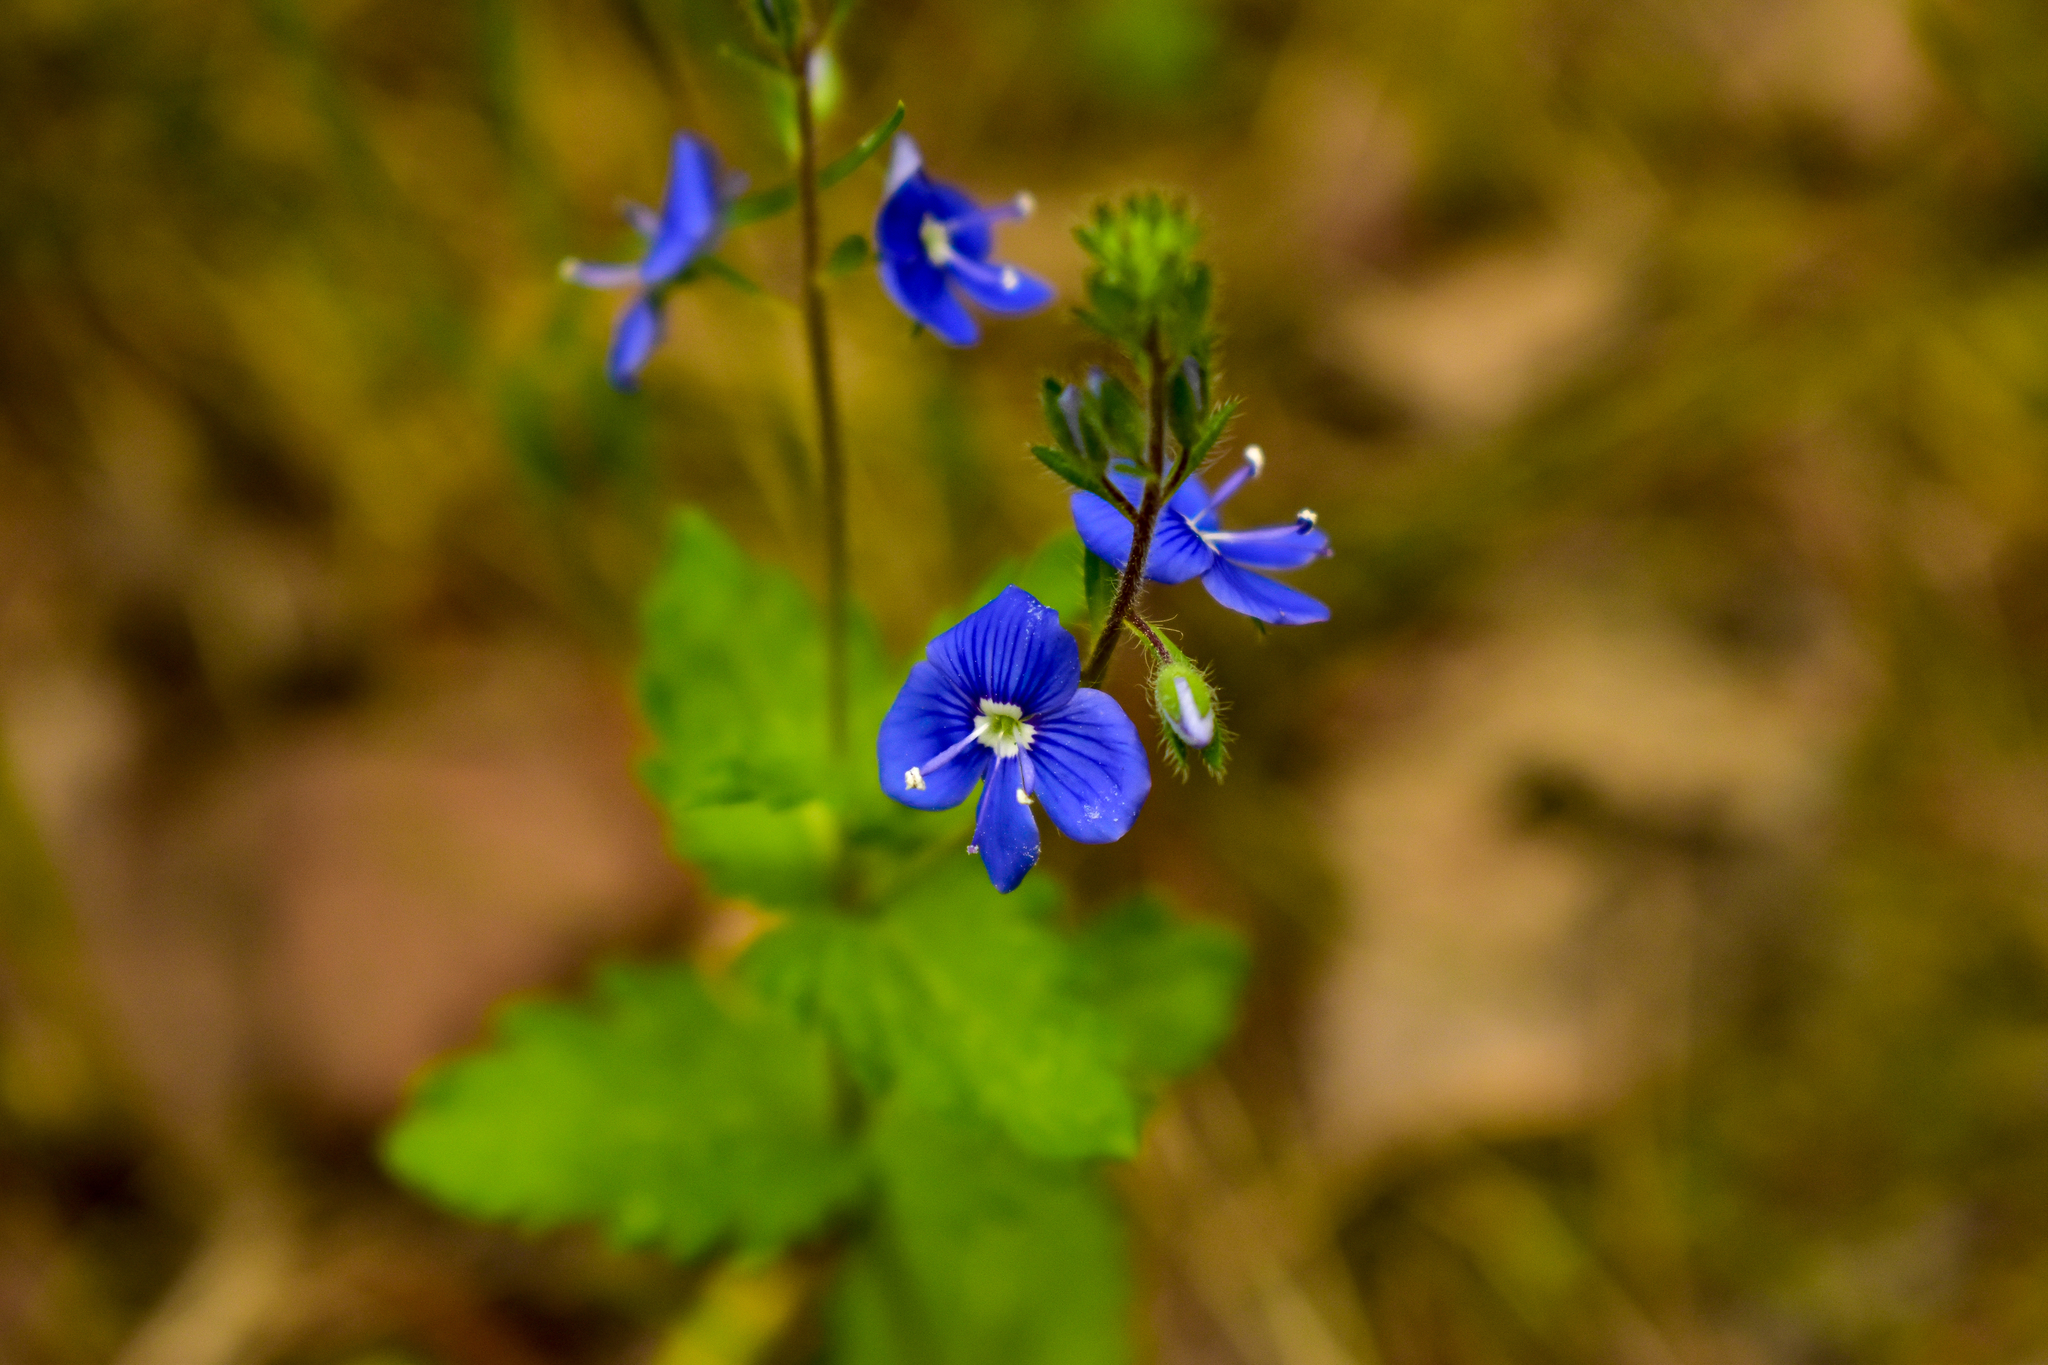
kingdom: Plantae
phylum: Tracheophyta
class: Magnoliopsida
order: Lamiales
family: Plantaginaceae
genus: Veronica
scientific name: Veronica chamaedrys
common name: Germander speedwell
